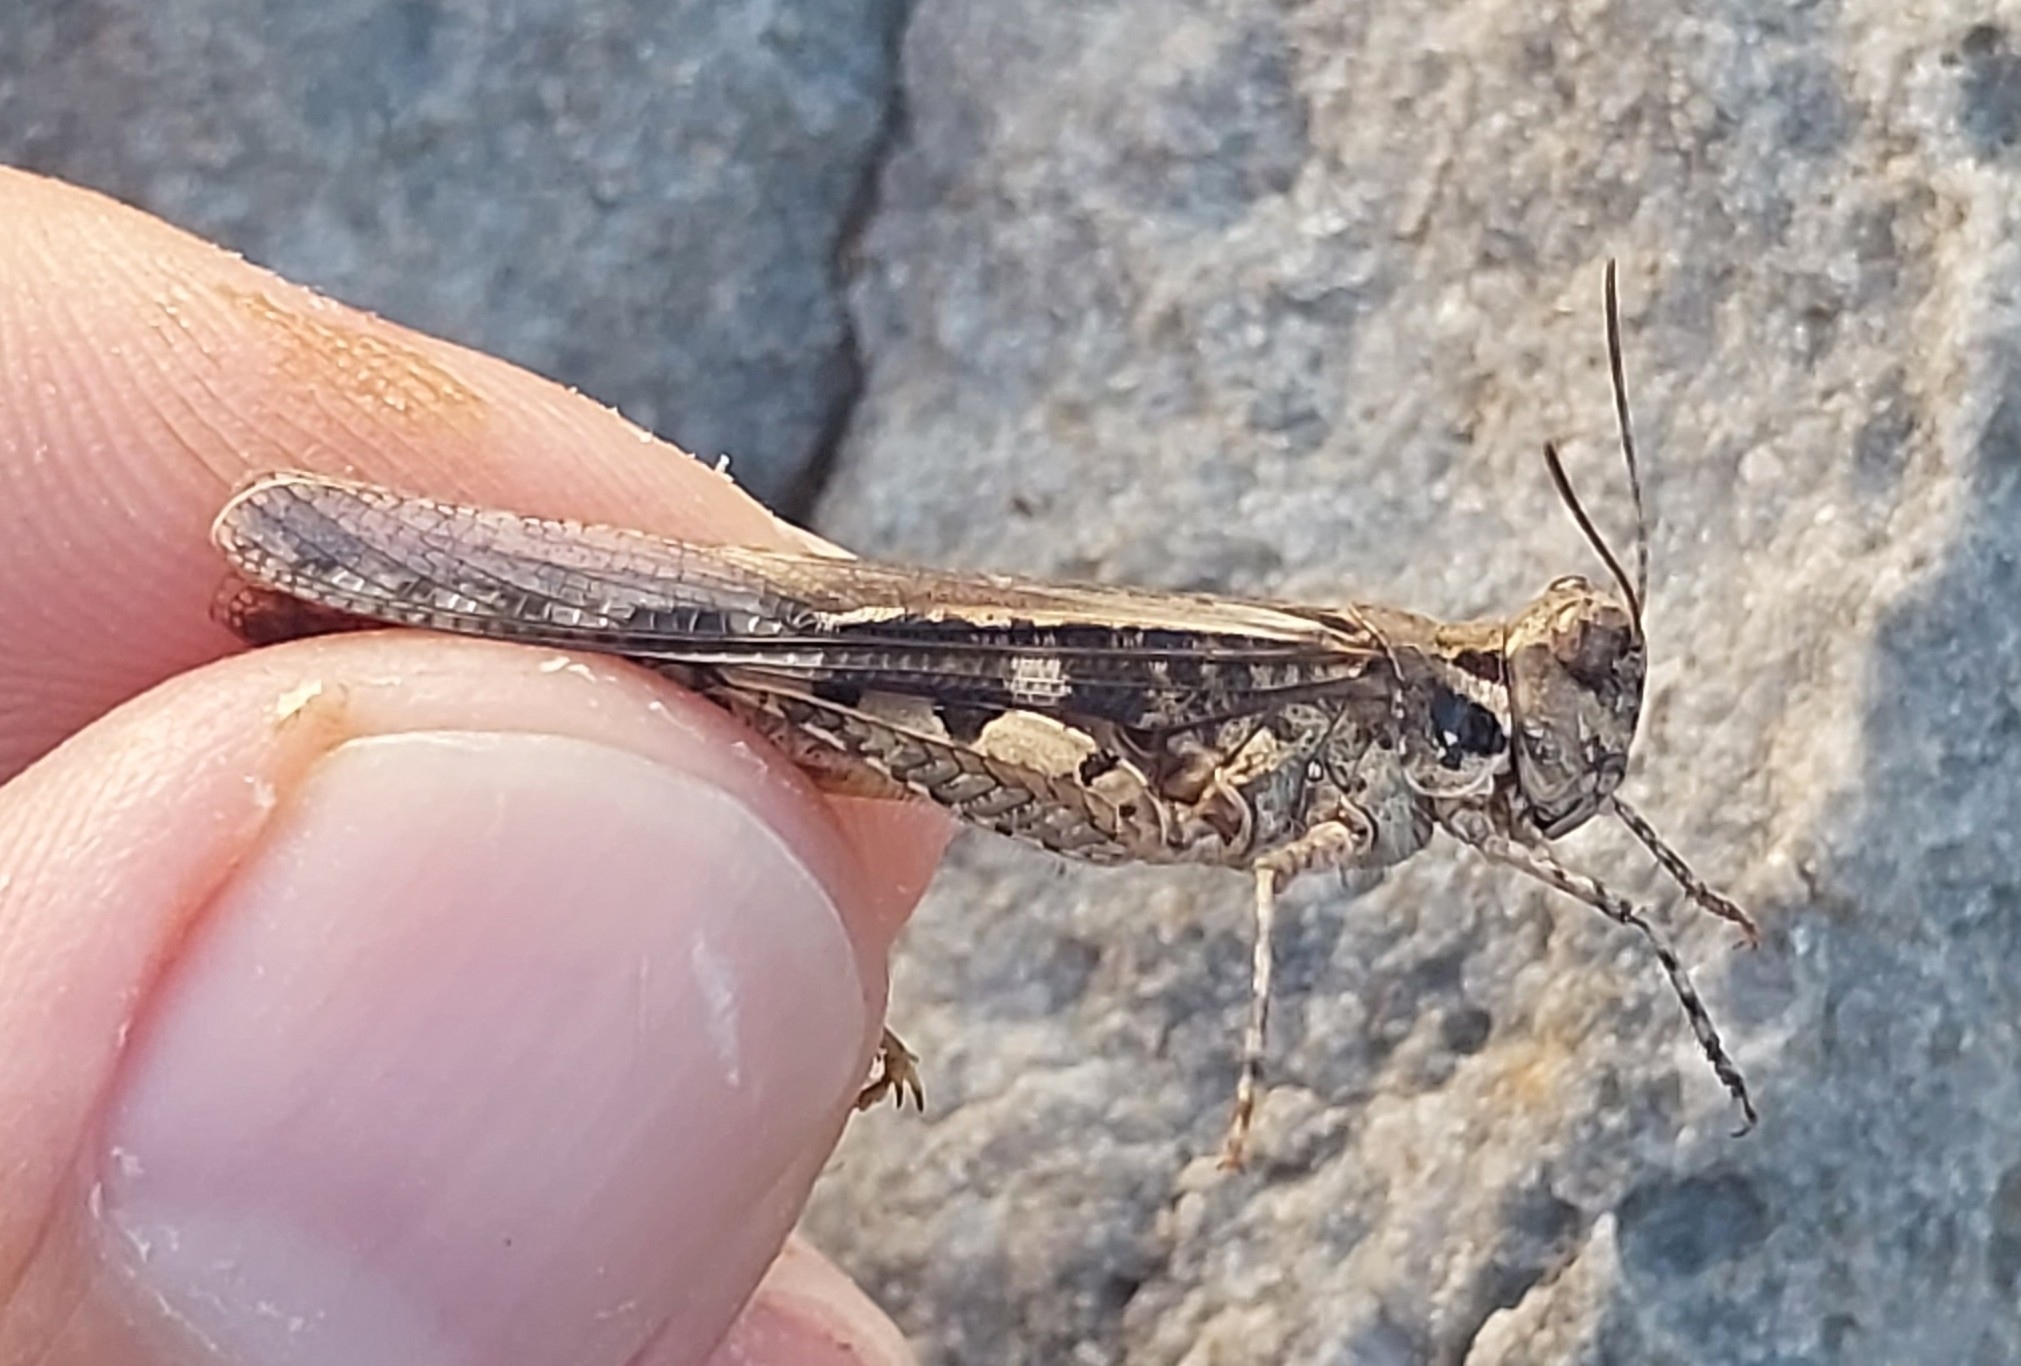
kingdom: Animalia
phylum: Arthropoda
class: Insecta
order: Orthoptera
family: Acrididae
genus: Acrotylus
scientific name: Acrotylus patruelis
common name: Slender burrowing grasshopper
